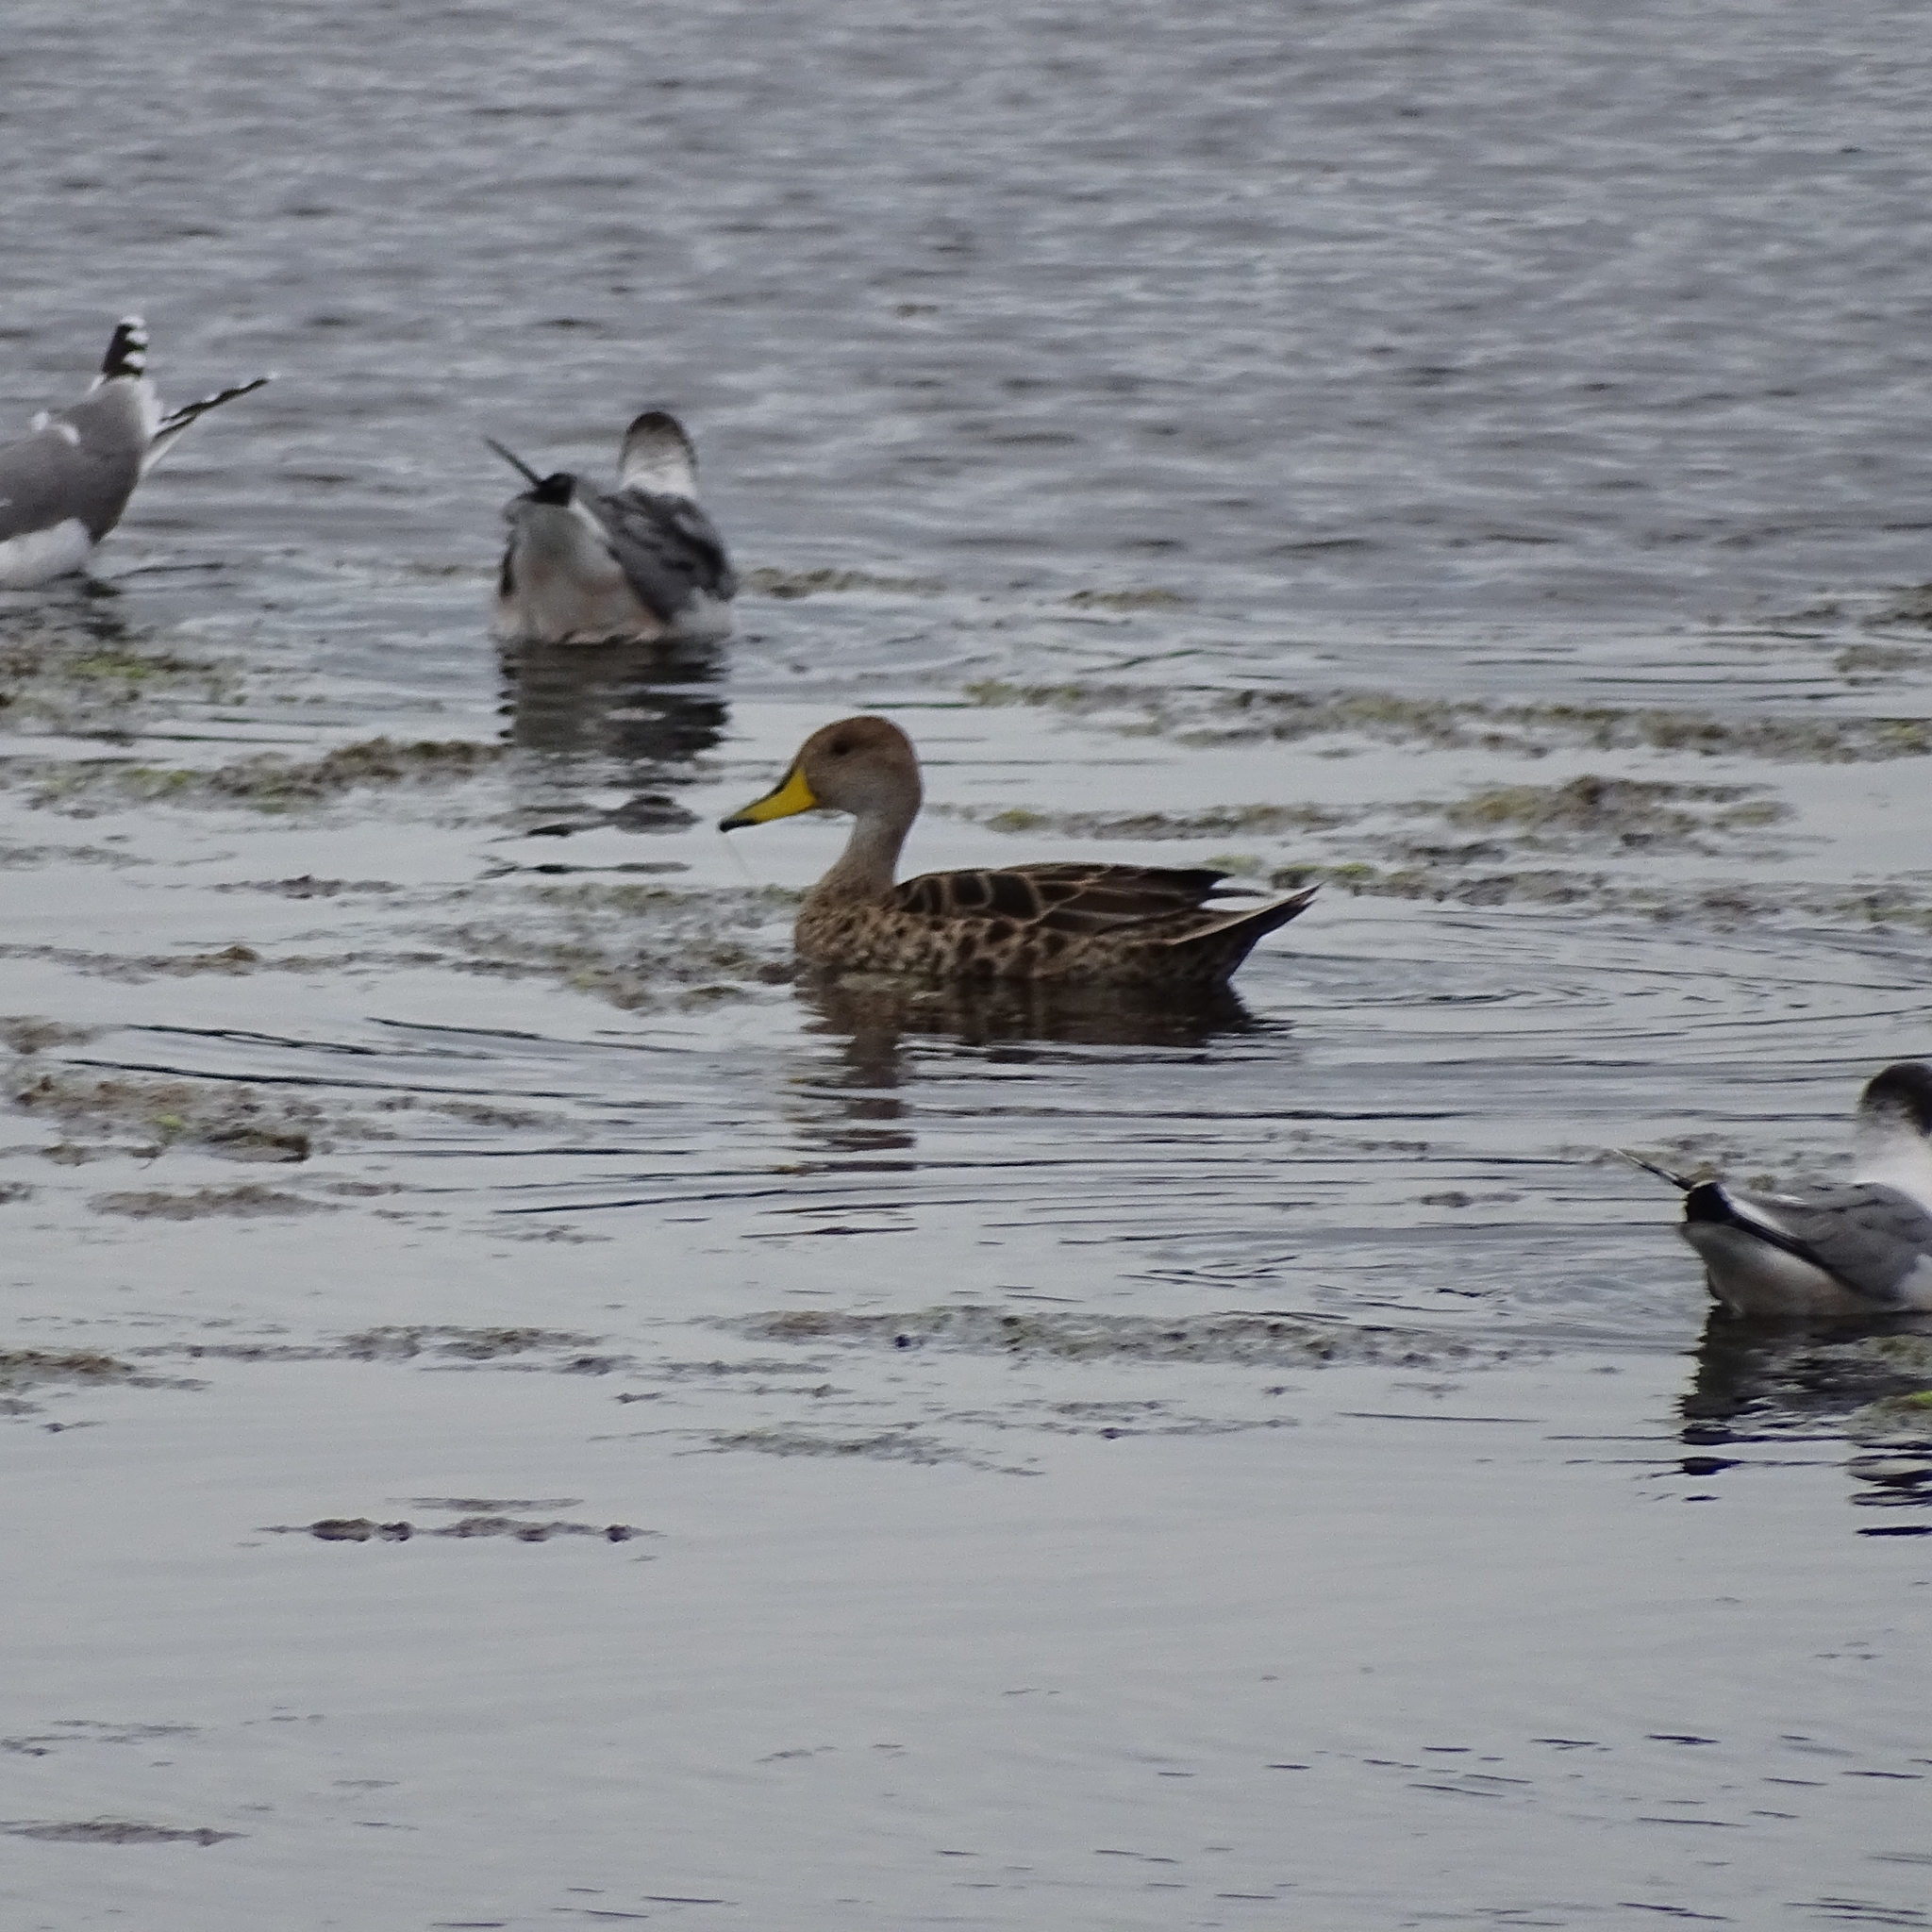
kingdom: Animalia
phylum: Chordata
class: Aves
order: Anseriformes
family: Anatidae
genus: Anas
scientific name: Anas georgica
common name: Yellow-billed pintail
